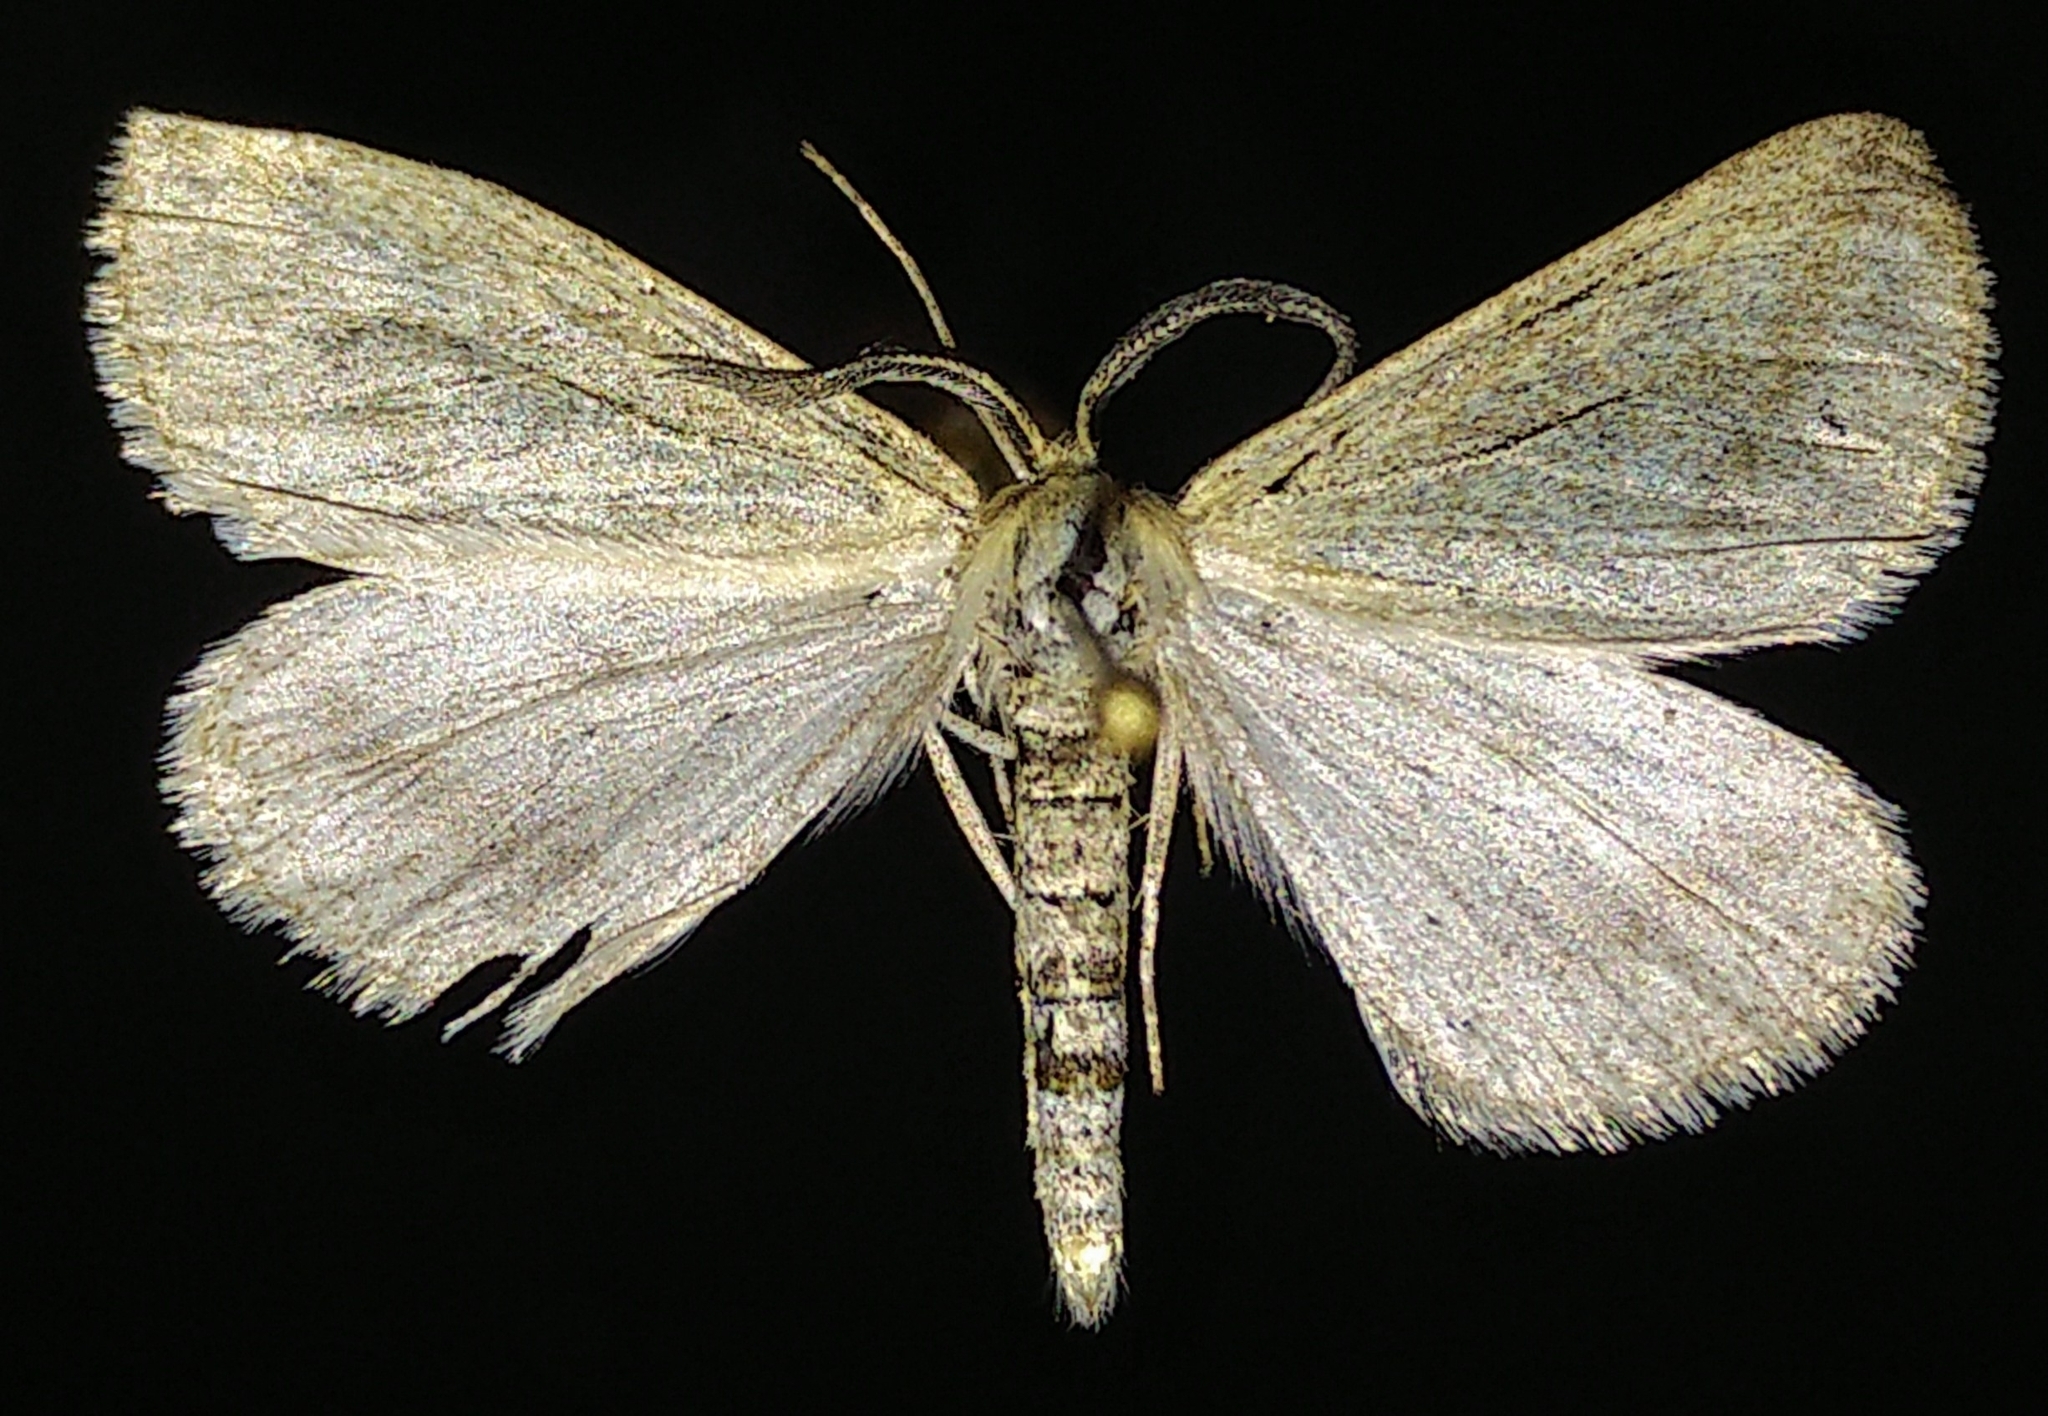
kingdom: Animalia
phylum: Arthropoda
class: Insecta
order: Lepidoptera
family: Geometridae
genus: Aspitates
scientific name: Aspitates aberrata
